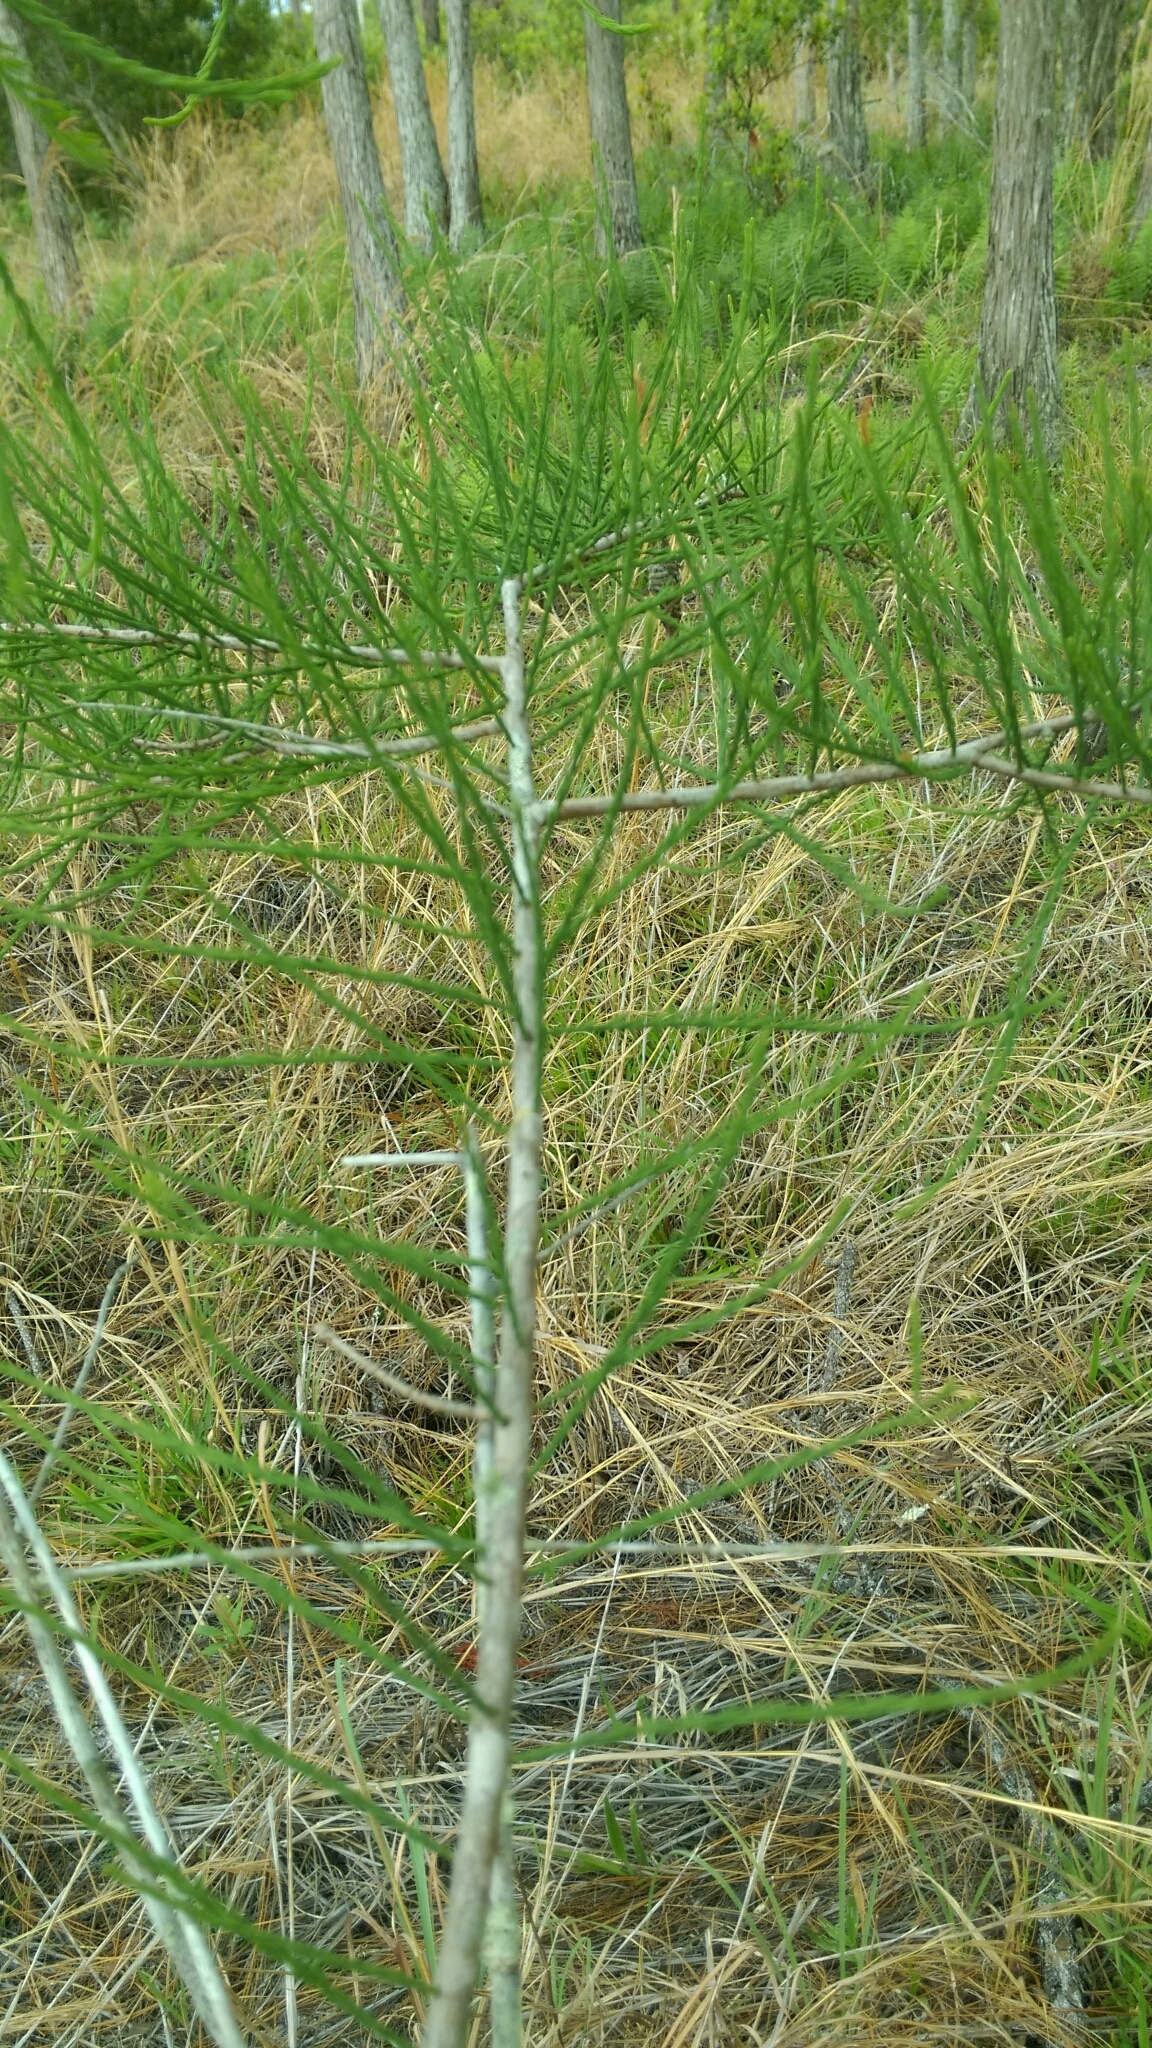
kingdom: Plantae
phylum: Tracheophyta
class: Pinopsida
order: Pinales
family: Cupressaceae
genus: Taxodium
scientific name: Taxodium distichum
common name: Bald cypress
